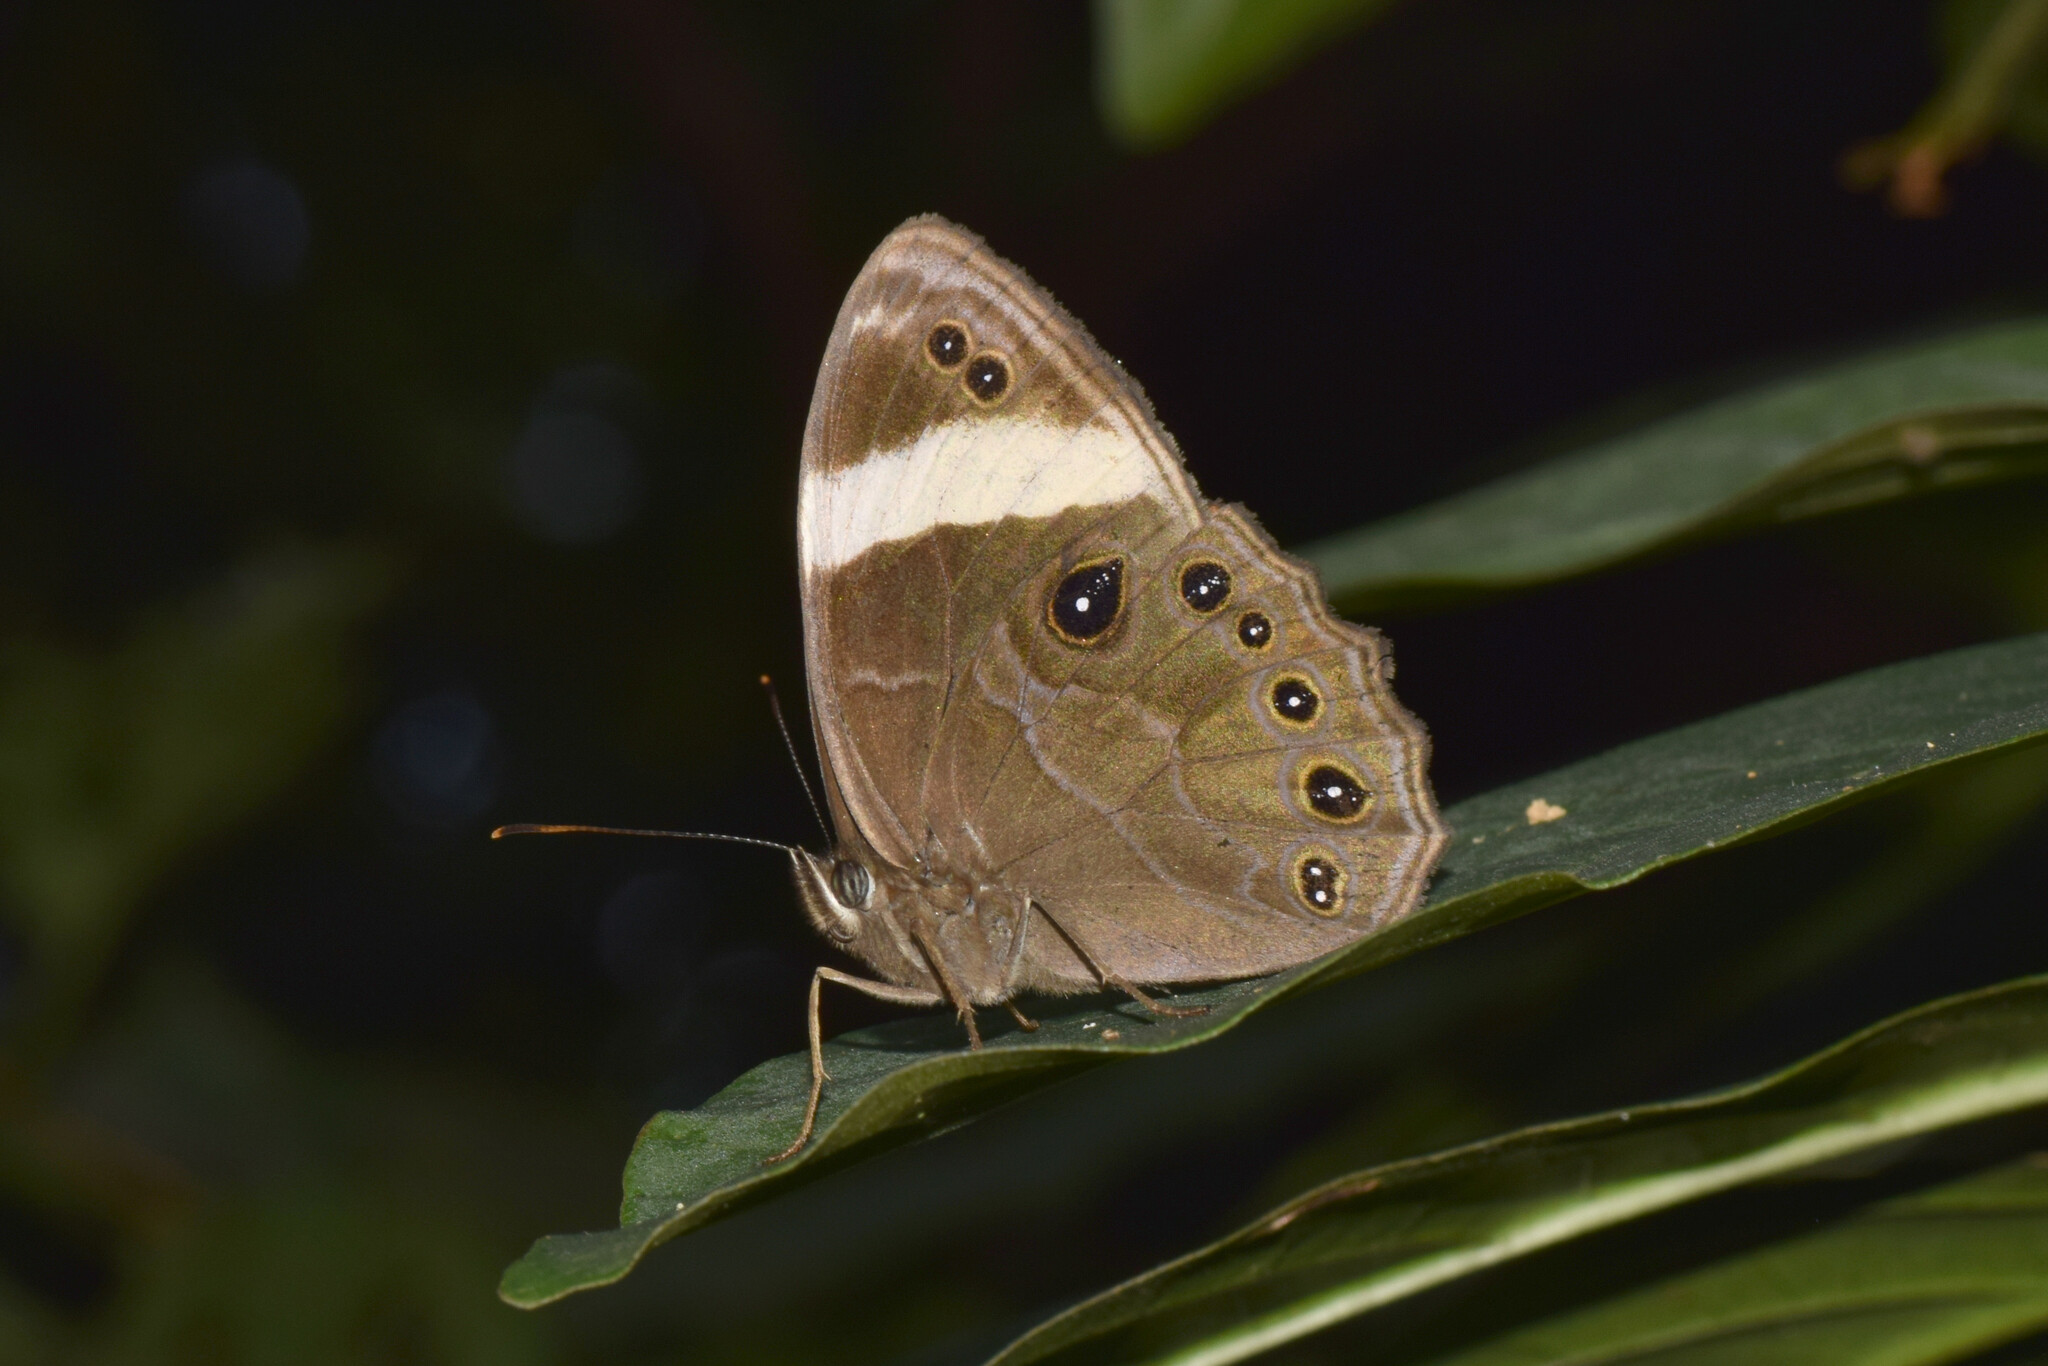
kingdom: Animalia
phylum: Arthropoda
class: Insecta
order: Lepidoptera
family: Nymphalidae
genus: Lethe
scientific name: Lethe verma
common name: Straight-banded treebrown
